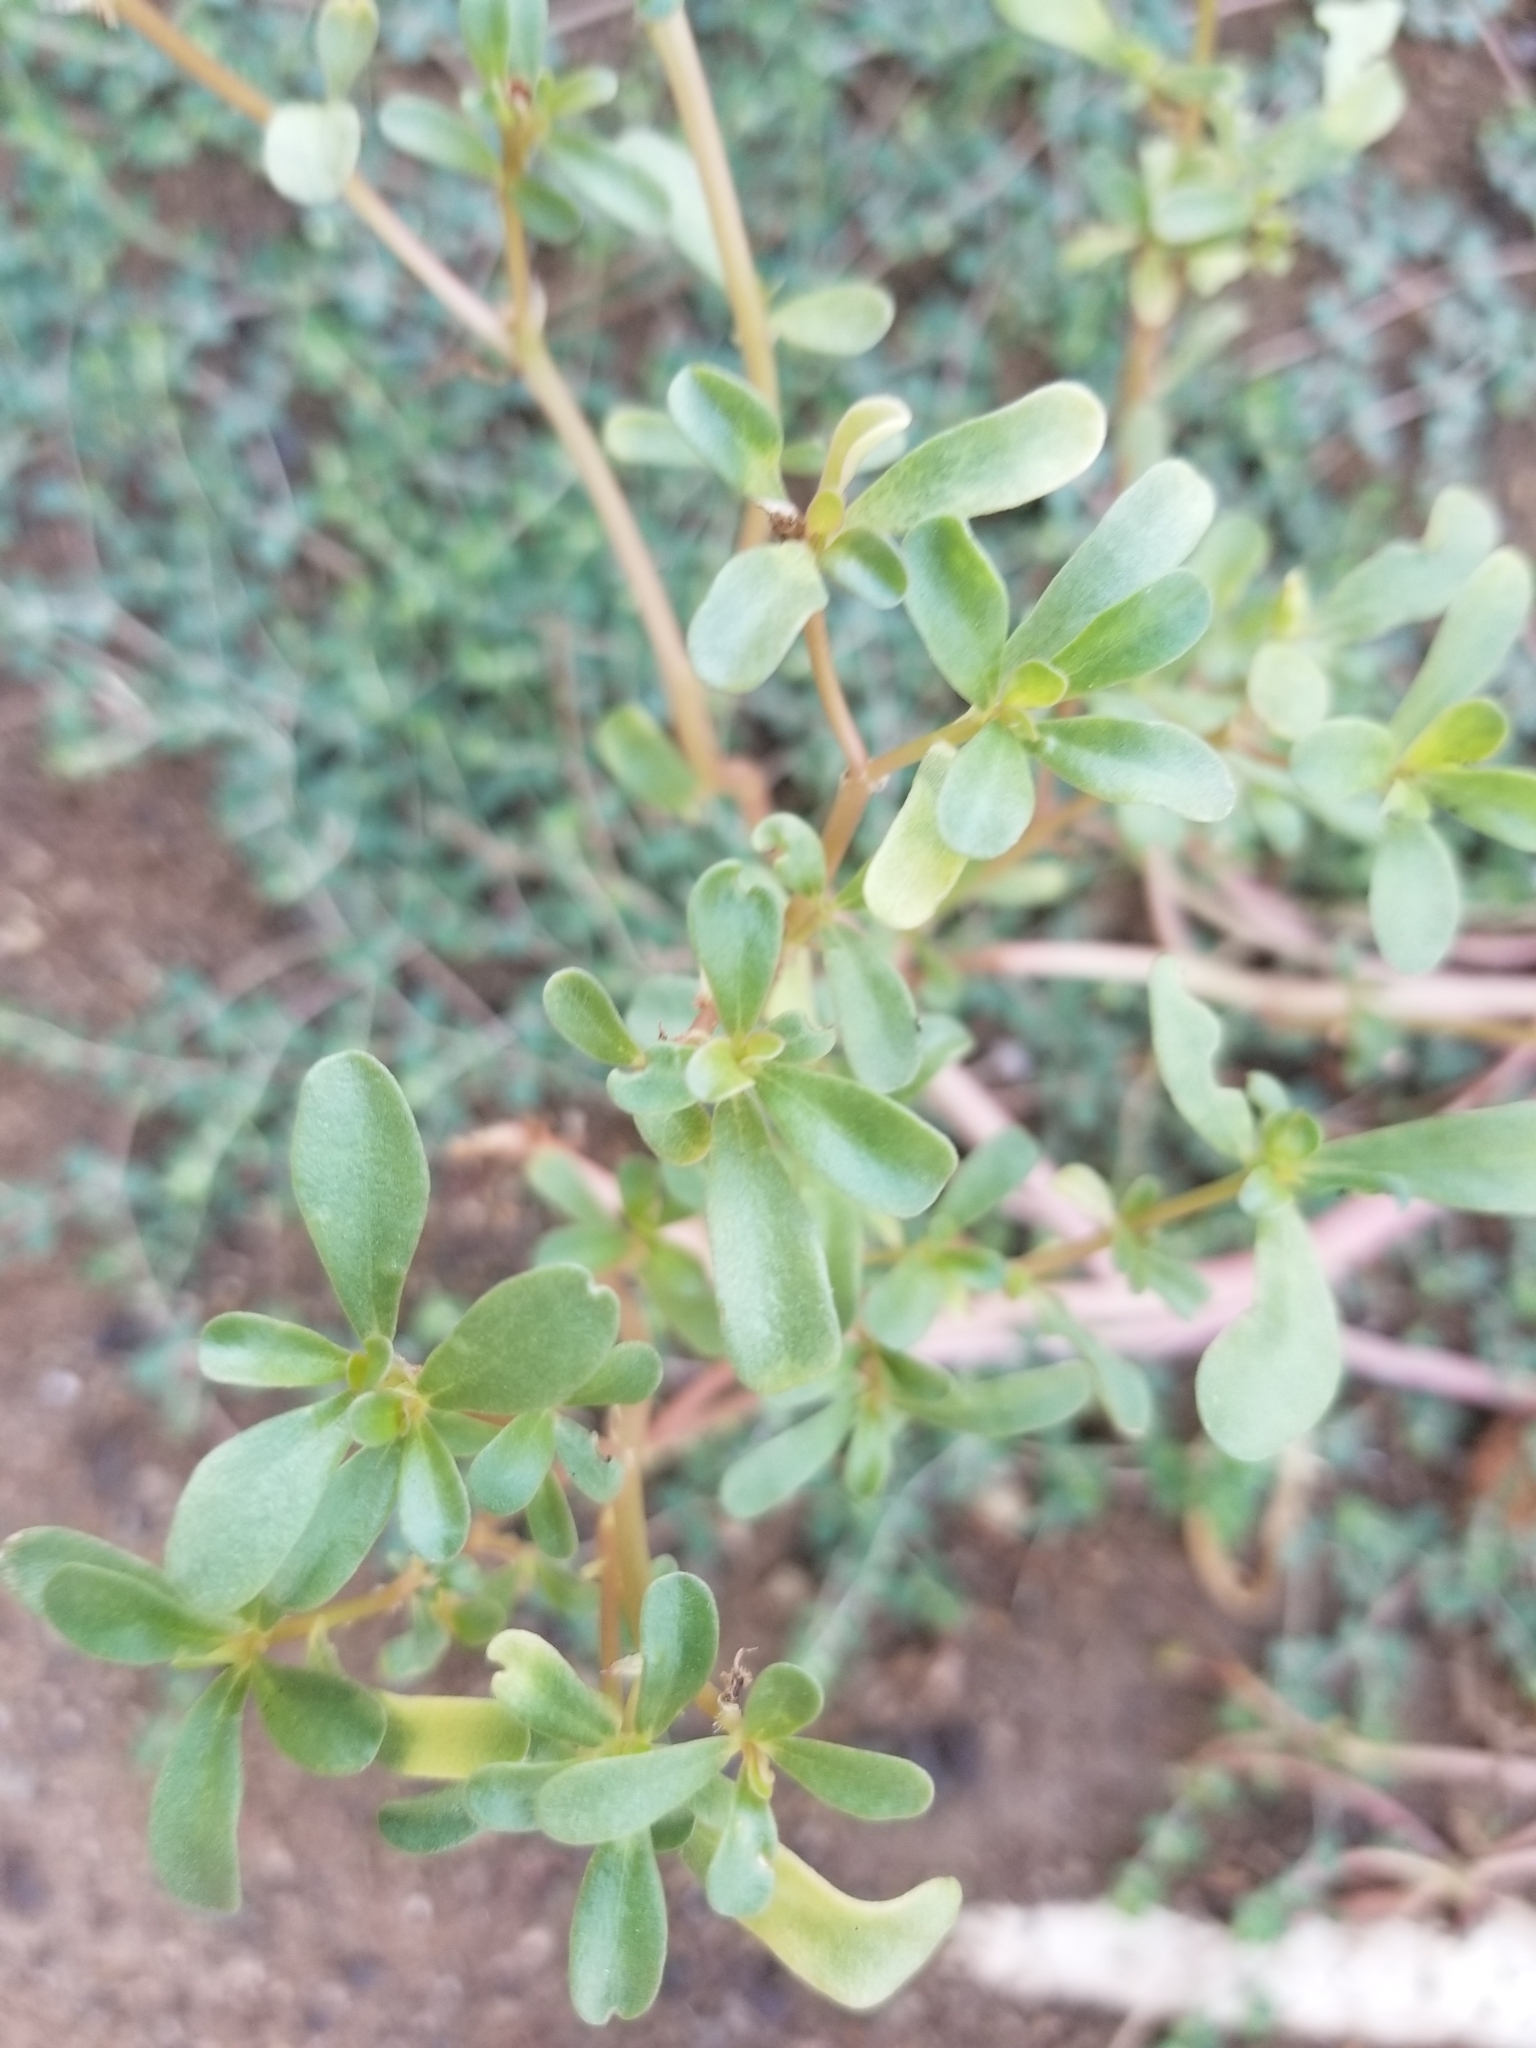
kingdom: Plantae
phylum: Tracheophyta
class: Magnoliopsida
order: Caryophyllales
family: Portulacaceae
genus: Portulaca
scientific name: Portulaca oleracea
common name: Common purslane
